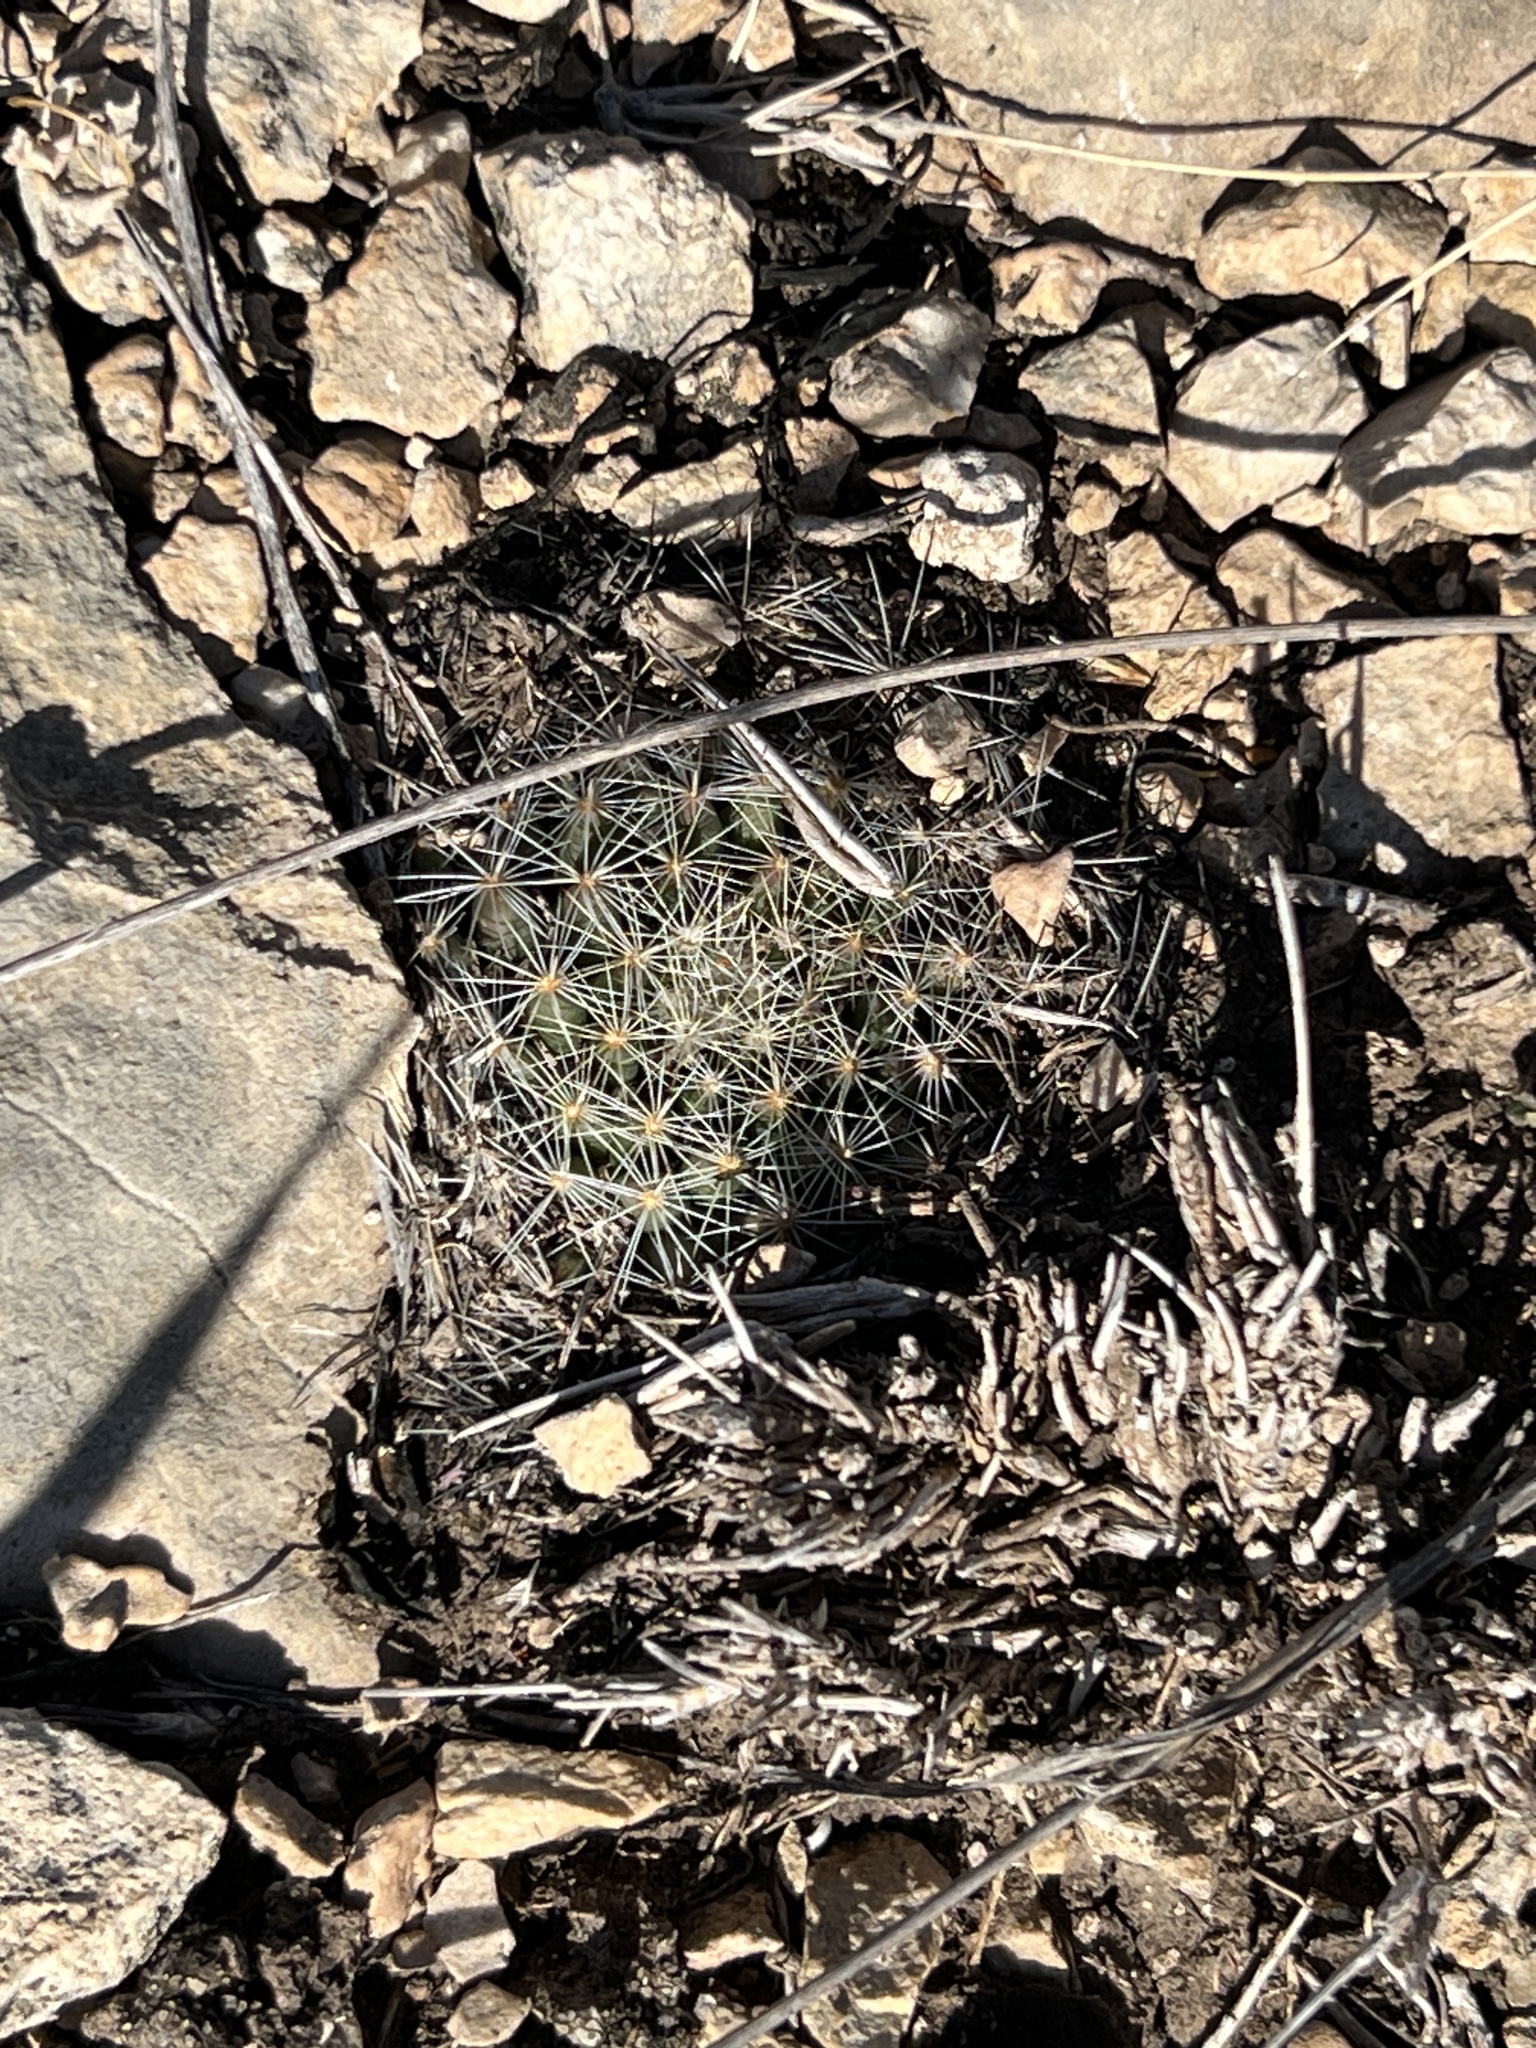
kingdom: Plantae
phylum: Tracheophyta
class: Magnoliopsida
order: Caryophyllales
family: Cactaceae
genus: Mammillaria
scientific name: Mammillaria heyderi
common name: Little nipple cactus
